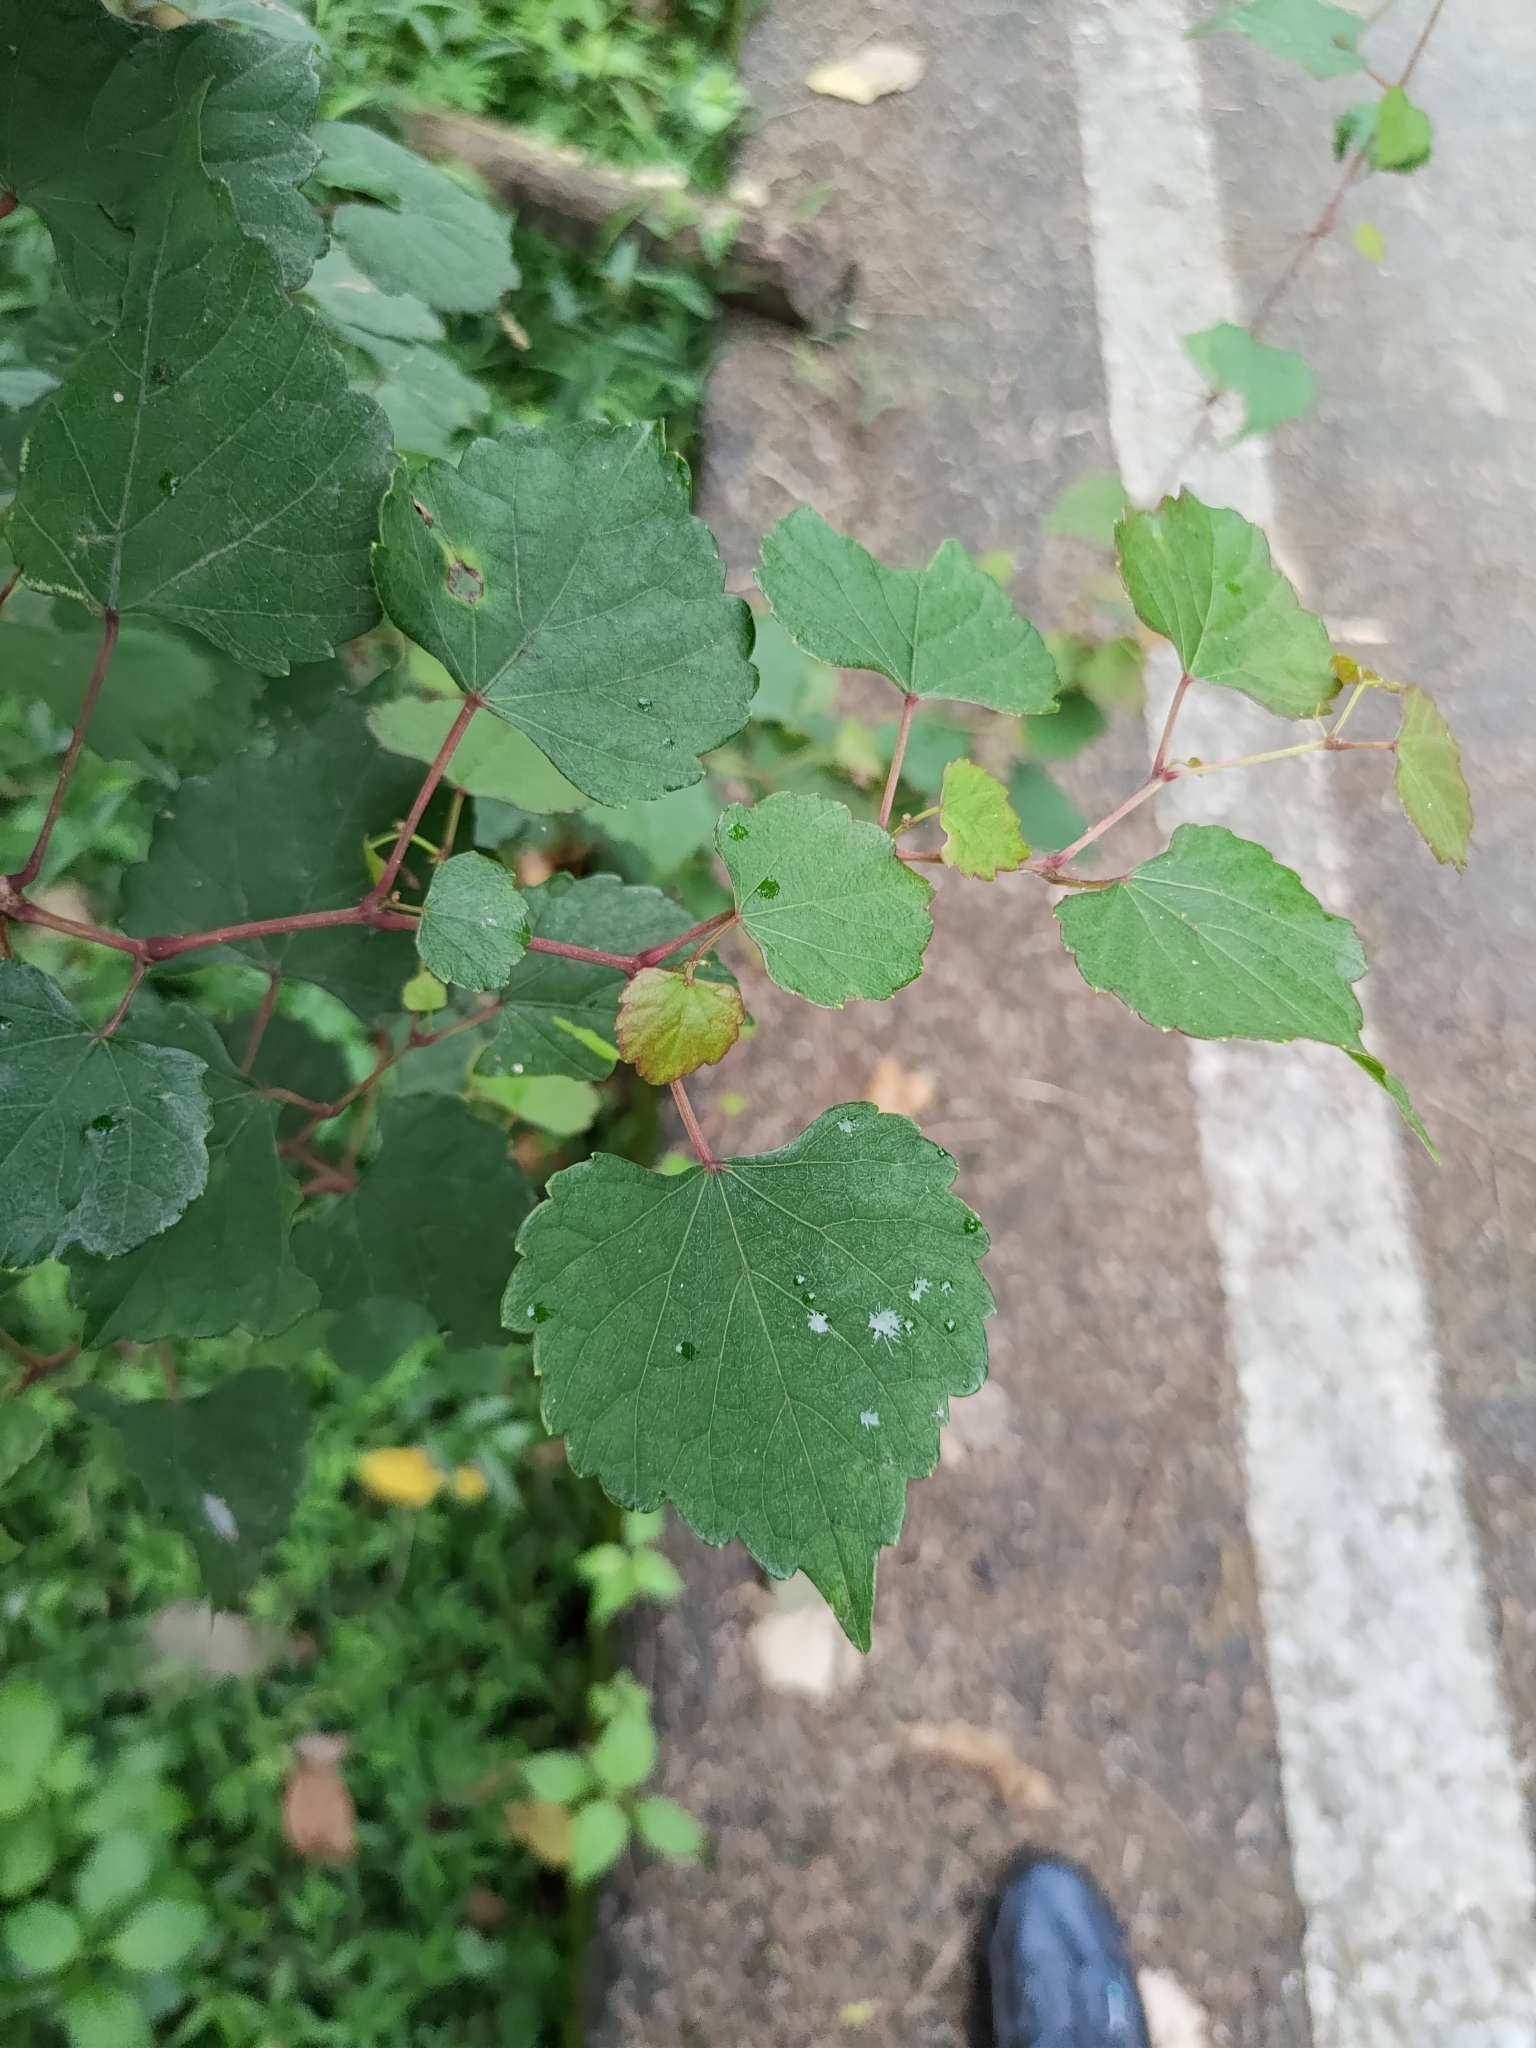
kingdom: Plantae
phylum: Tracheophyta
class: Magnoliopsida
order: Vitales
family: Vitaceae
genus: Ampelopsis
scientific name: Ampelopsis glandulosa
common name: Amur peppervine
